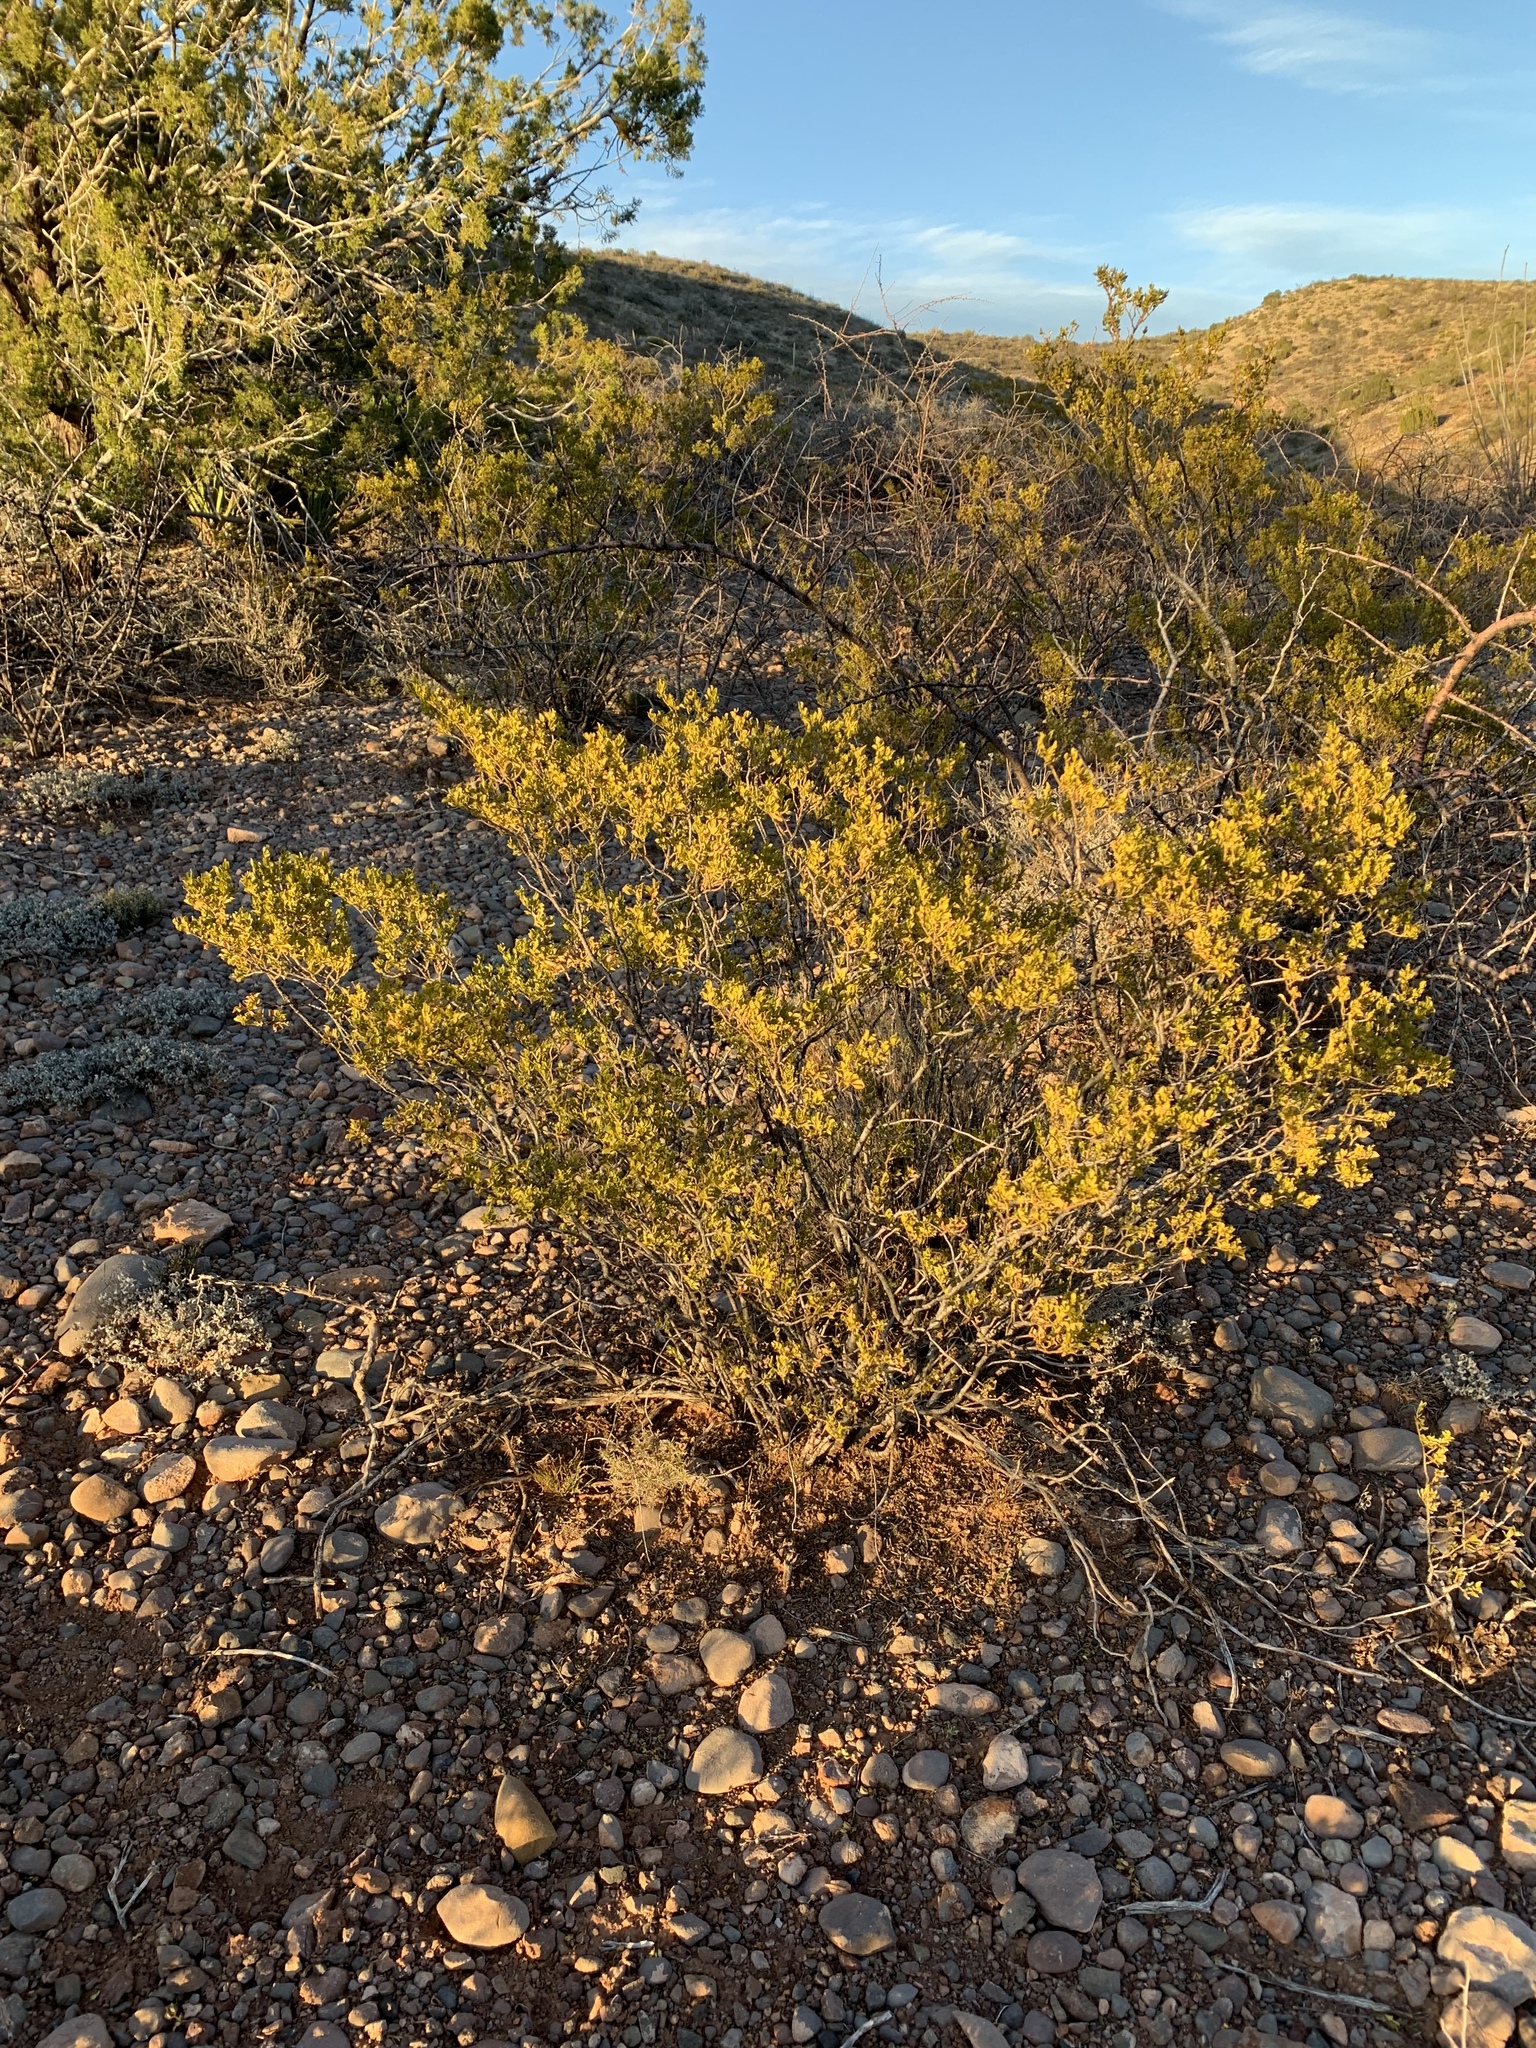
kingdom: Plantae
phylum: Tracheophyta
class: Magnoliopsida
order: Zygophyllales
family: Zygophyllaceae
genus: Larrea
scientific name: Larrea tridentata
